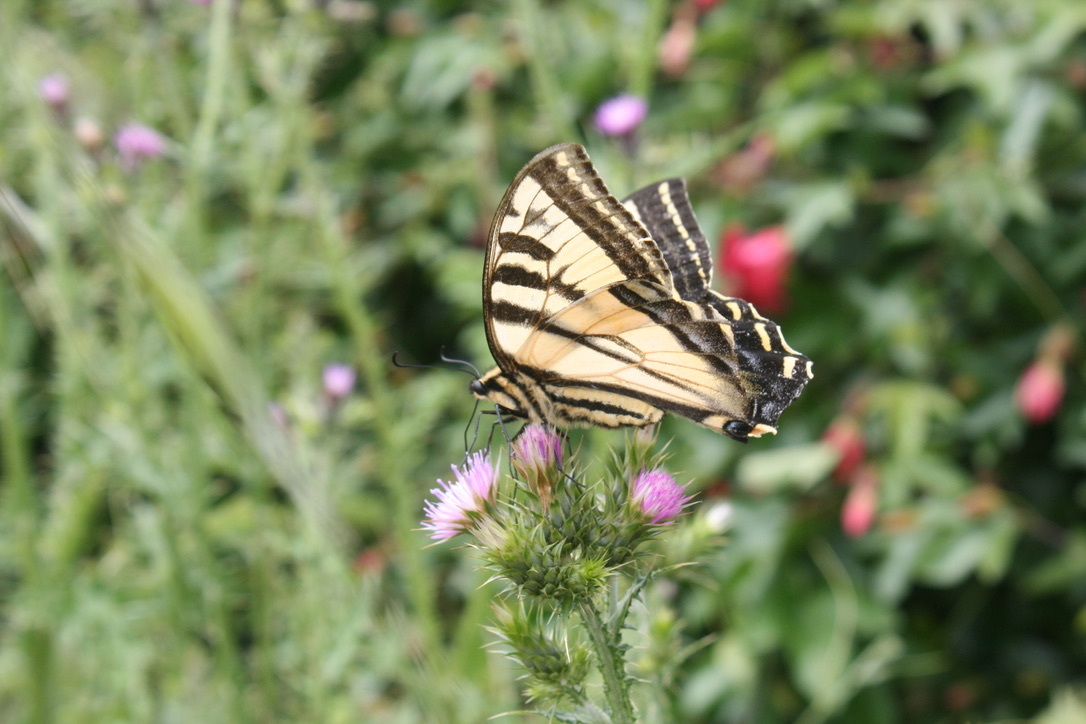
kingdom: Animalia
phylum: Arthropoda
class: Insecta
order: Lepidoptera
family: Papilionidae
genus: Papilio
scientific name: Papilio rutulus
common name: Western tiger swallowtail
